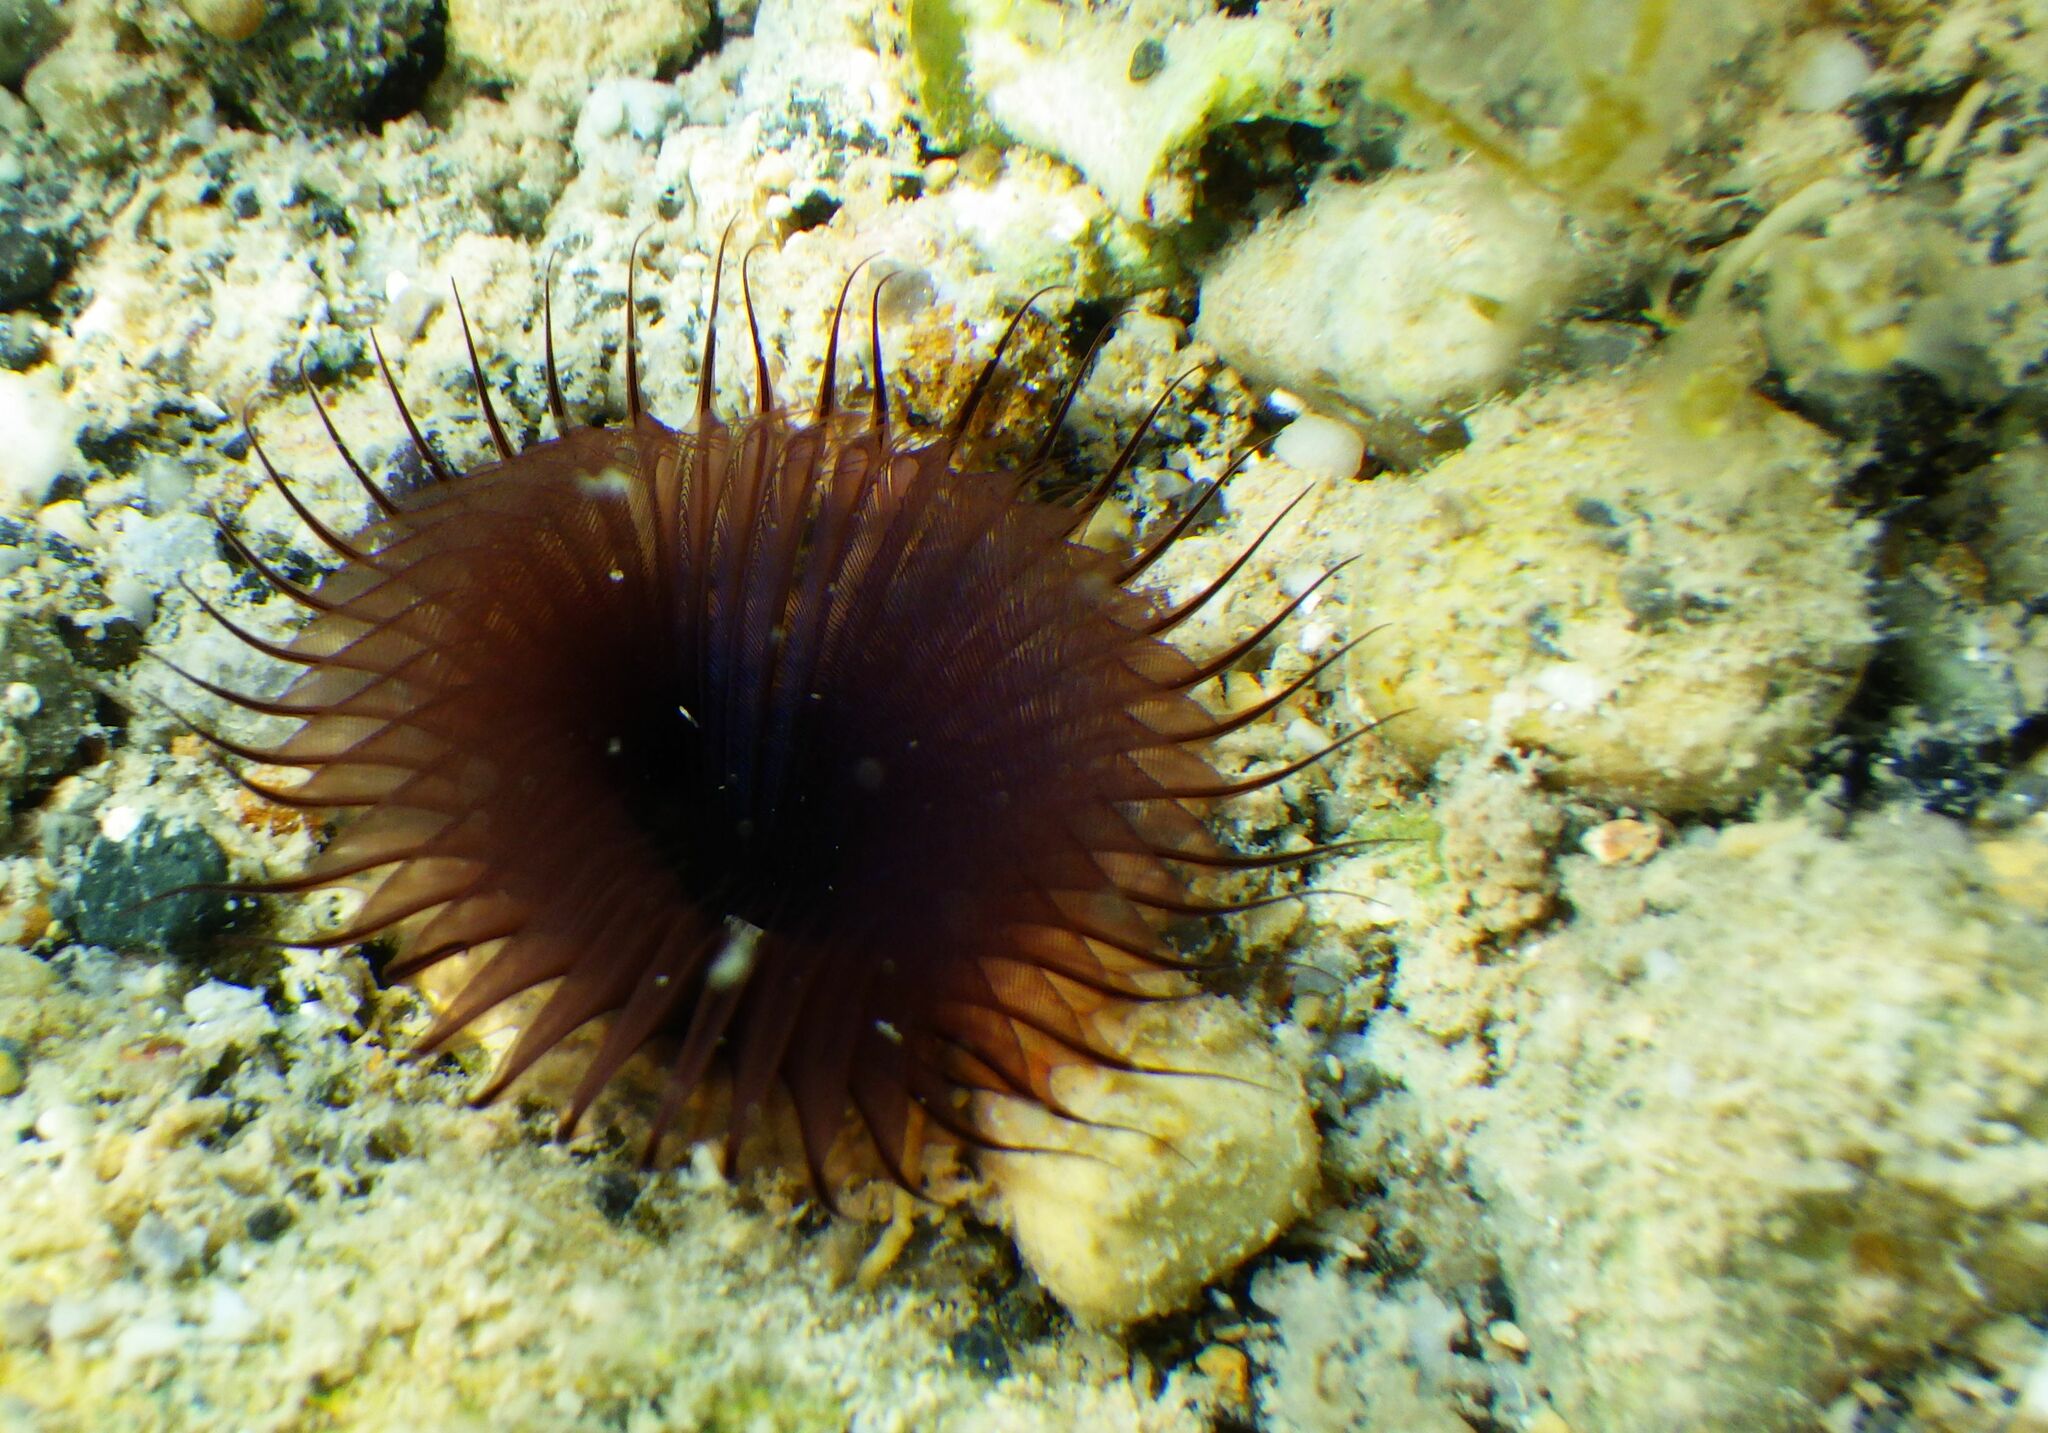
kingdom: Animalia
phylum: Annelida
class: Polychaeta
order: Sabellida
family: Sabellidae
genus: Myxicola
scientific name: Myxicola infundibulum
